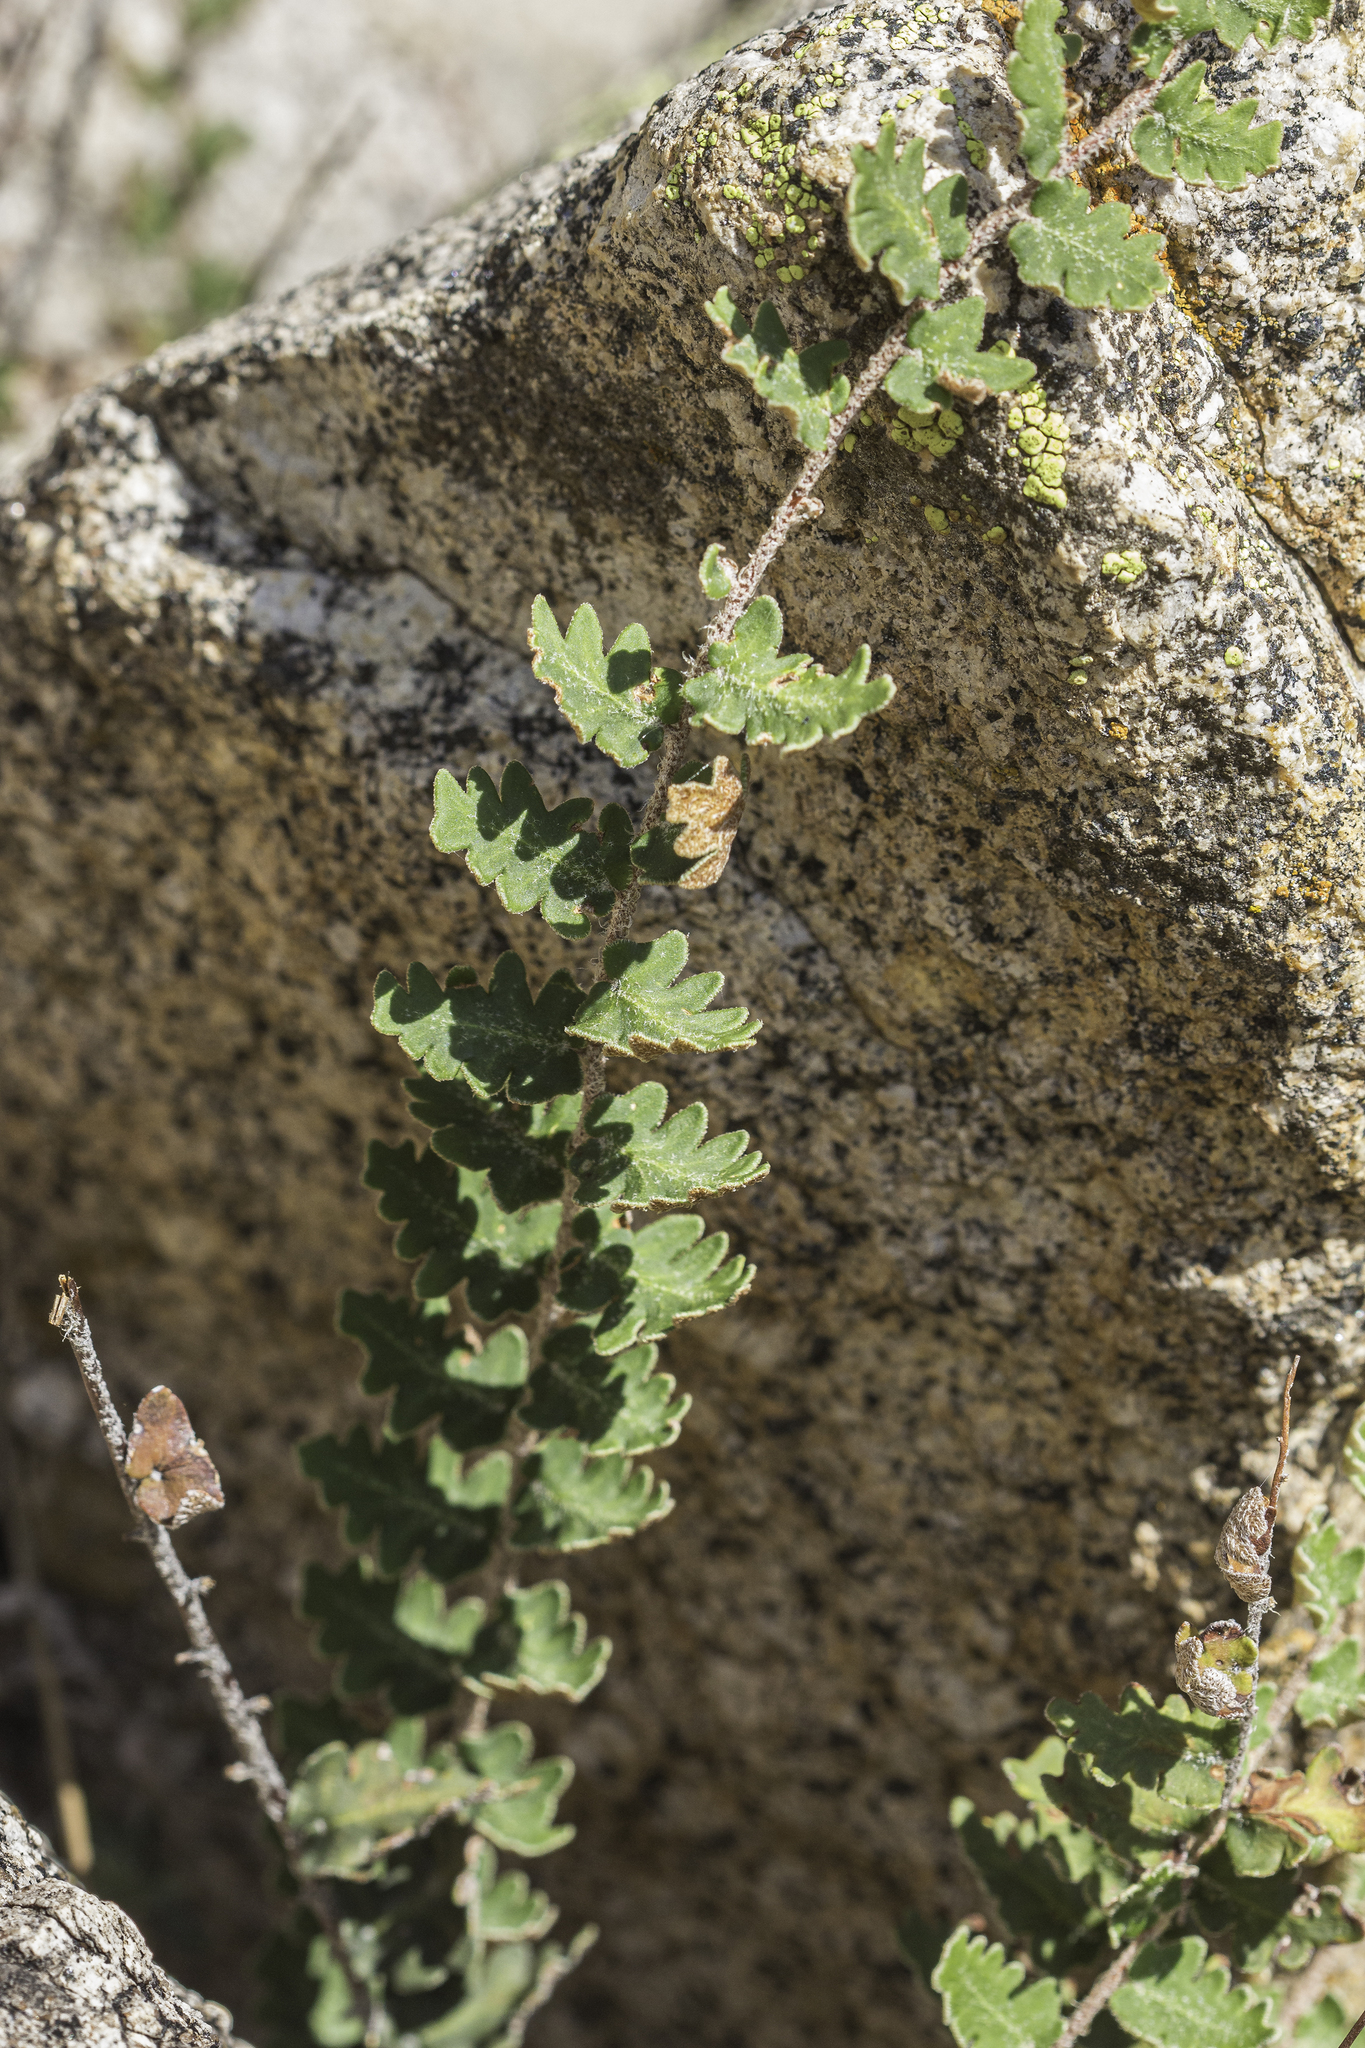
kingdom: Plantae
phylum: Tracheophyta
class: Polypodiopsida
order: Polypodiales
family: Pteridaceae
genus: Astrolepis
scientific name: Astrolepis sinuata
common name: Wavy scaly cloakfern
